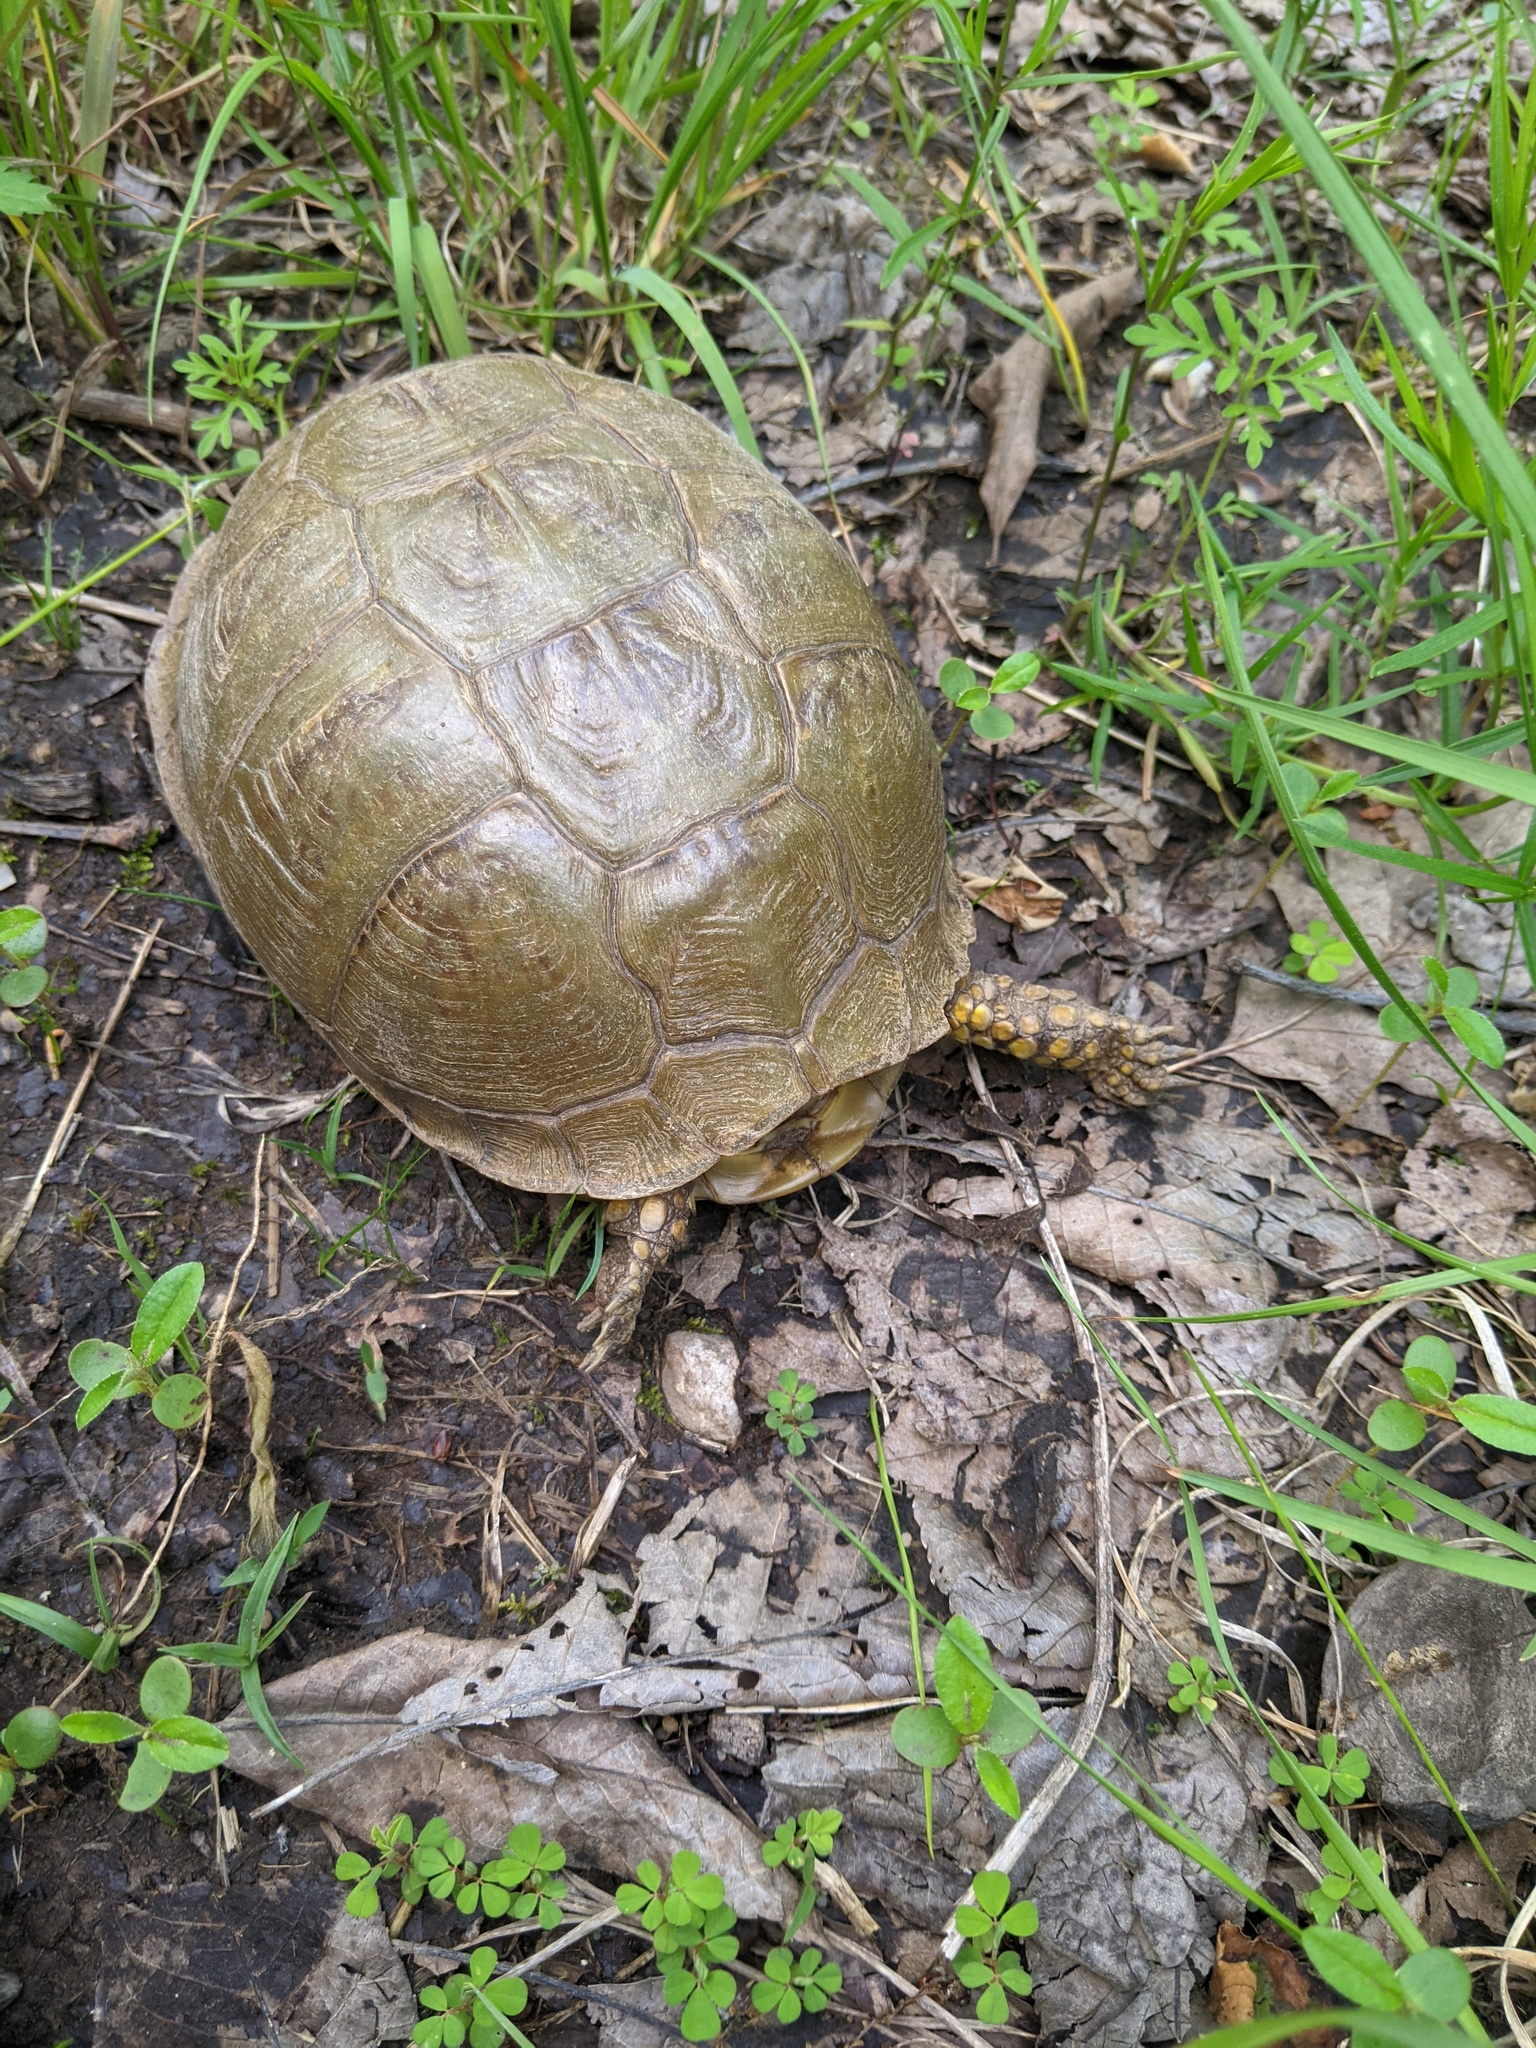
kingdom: Animalia
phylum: Chordata
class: Testudines
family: Emydidae
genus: Terrapene
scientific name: Terrapene carolina
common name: Common box turtle
